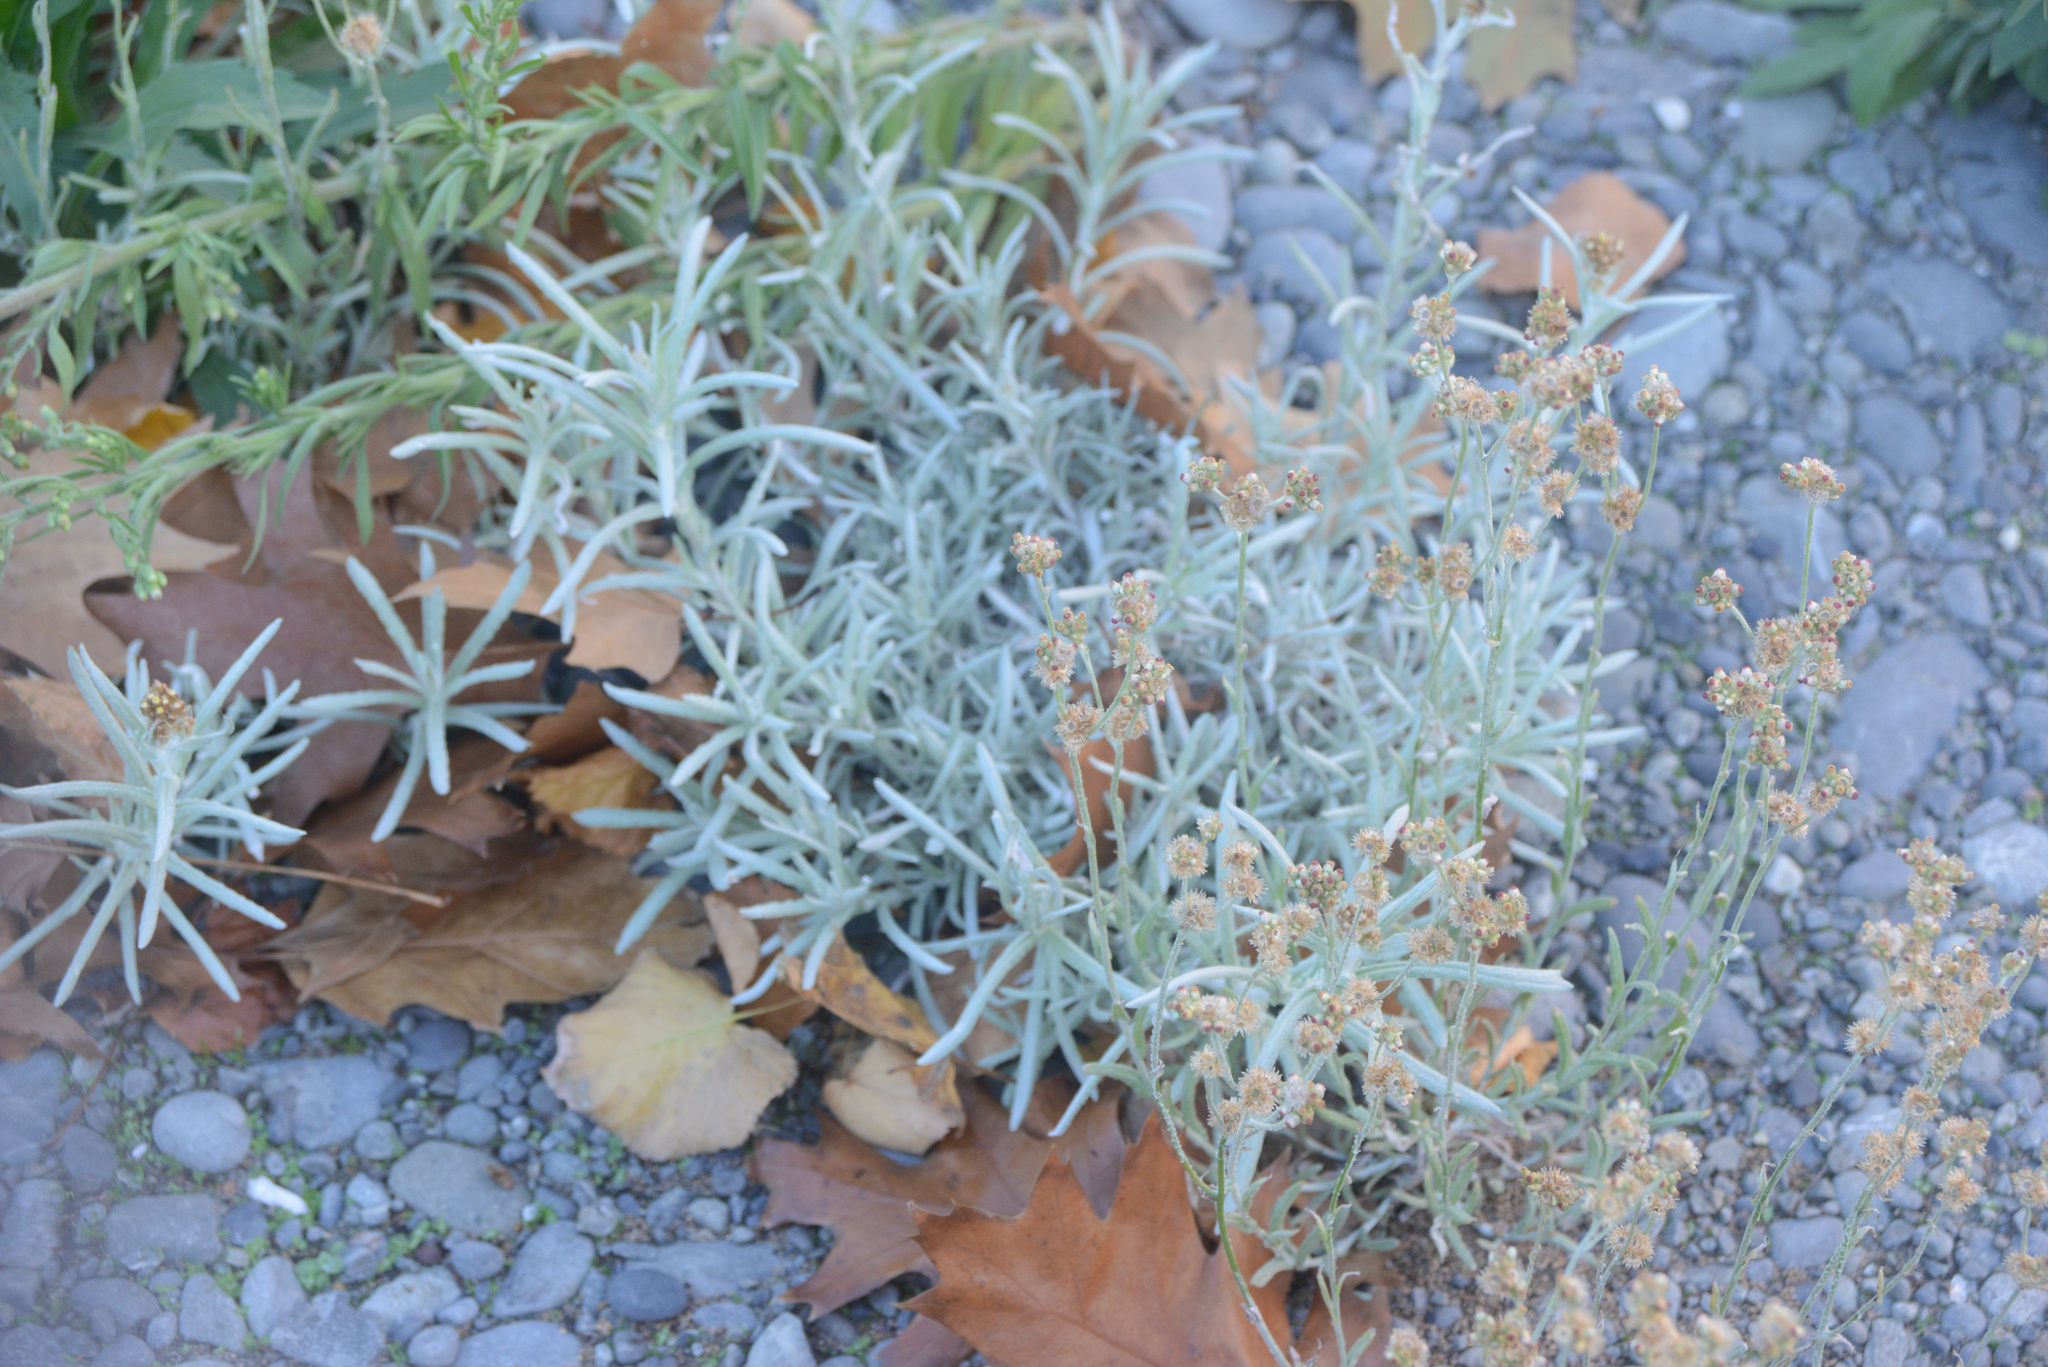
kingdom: Plantae
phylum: Tracheophyta
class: Magnoliopsida
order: Asterales
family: Asteraceae
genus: Helichrysum
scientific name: Helichrysum luteoalbum
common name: Daisy
